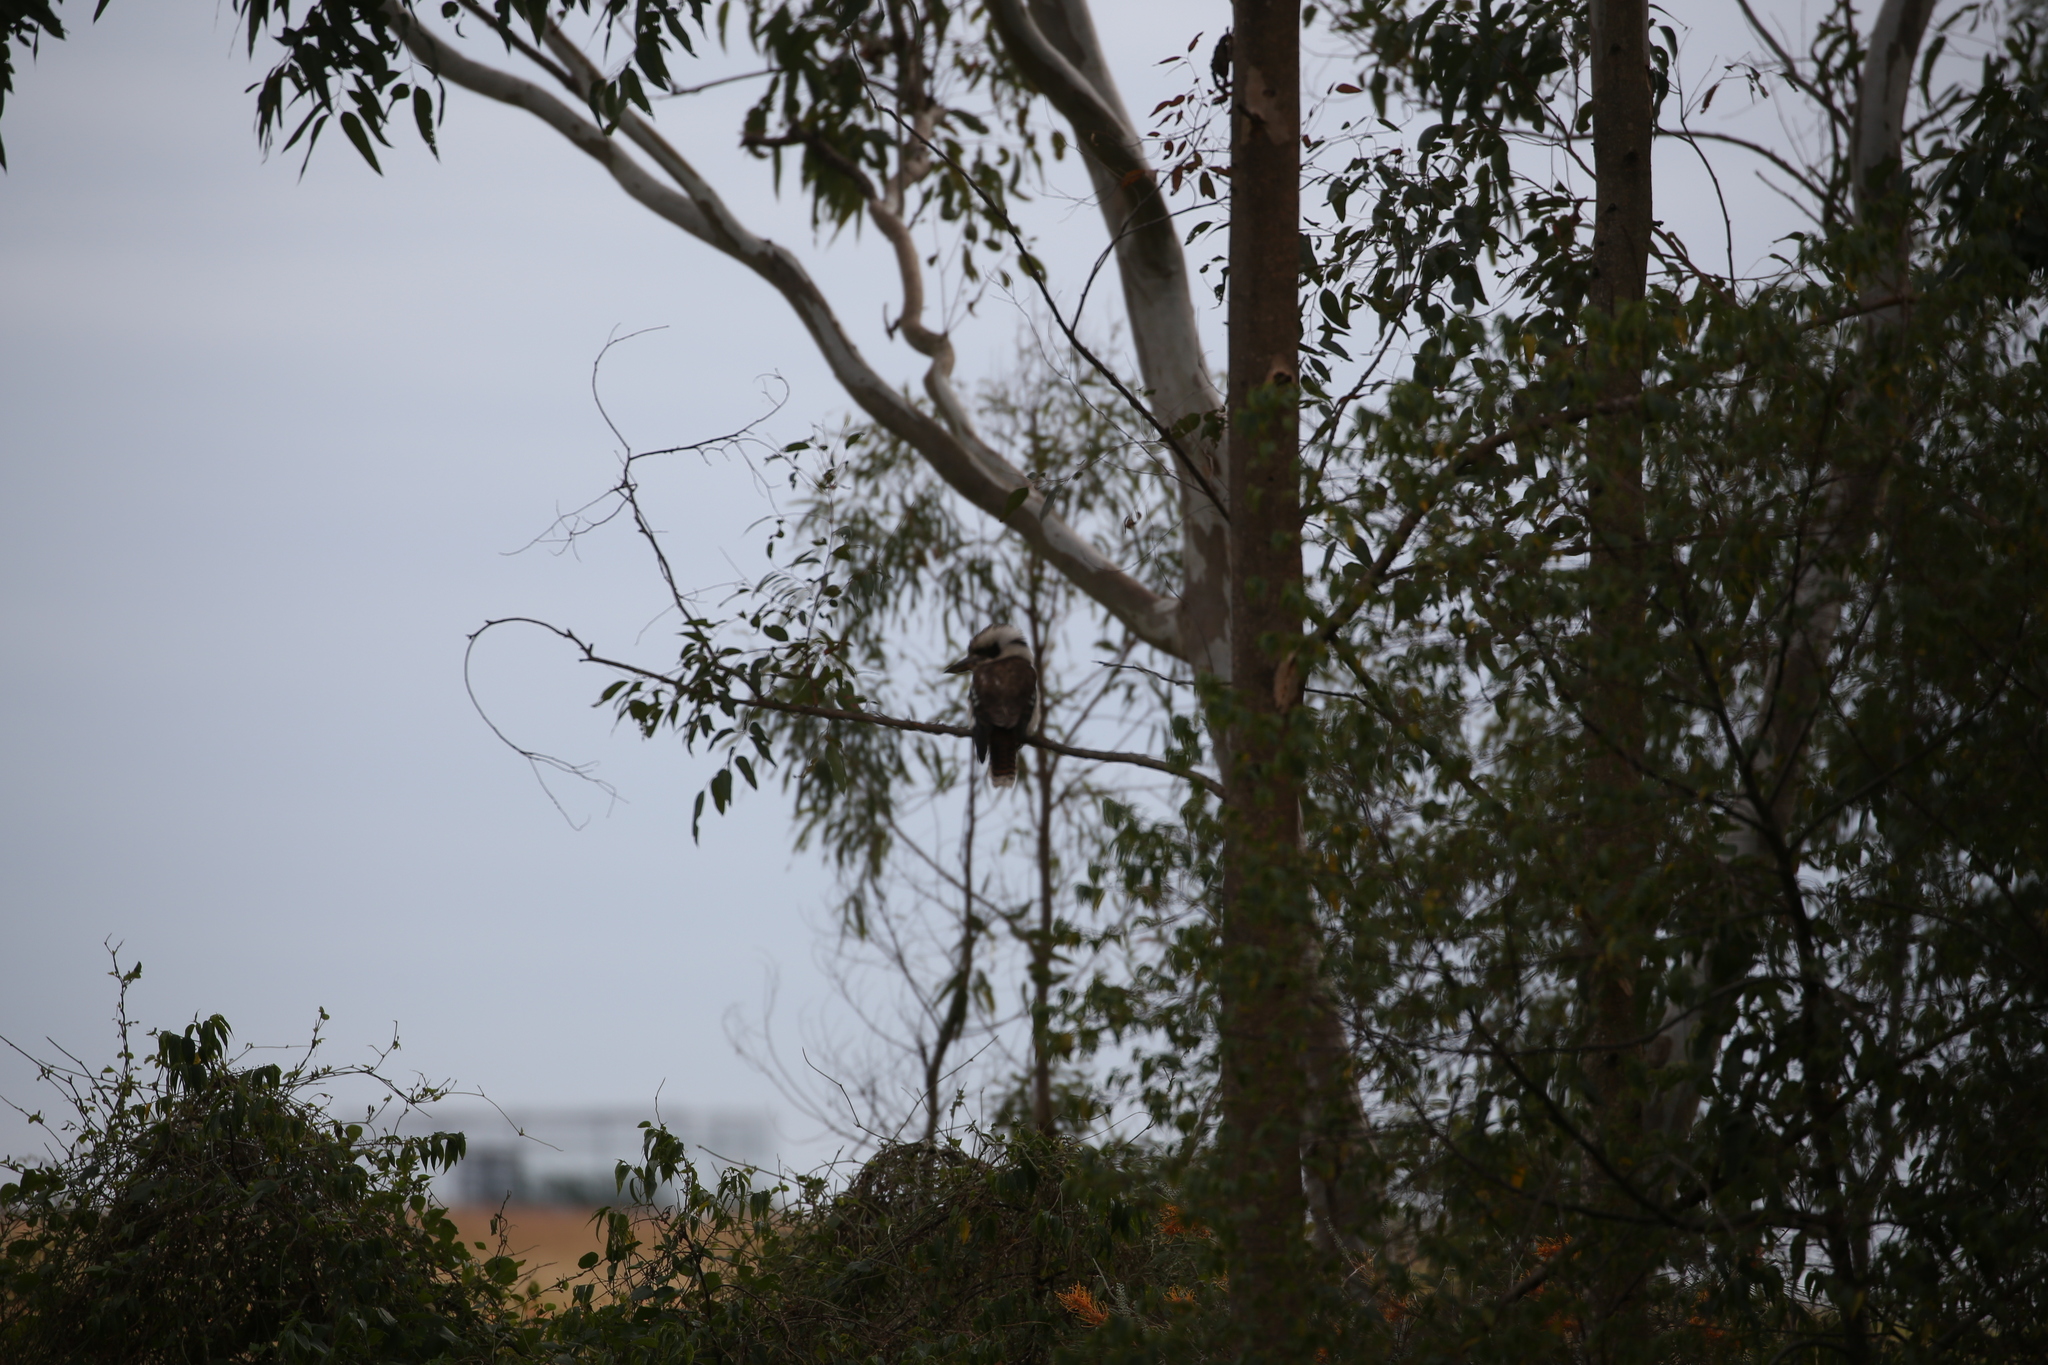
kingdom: Animalia
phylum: Chordata
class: Aves
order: Coraciiformes
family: Alcedinidae
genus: Dacelo
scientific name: Dacelo novaeguineae
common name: Laughing kookaburra
